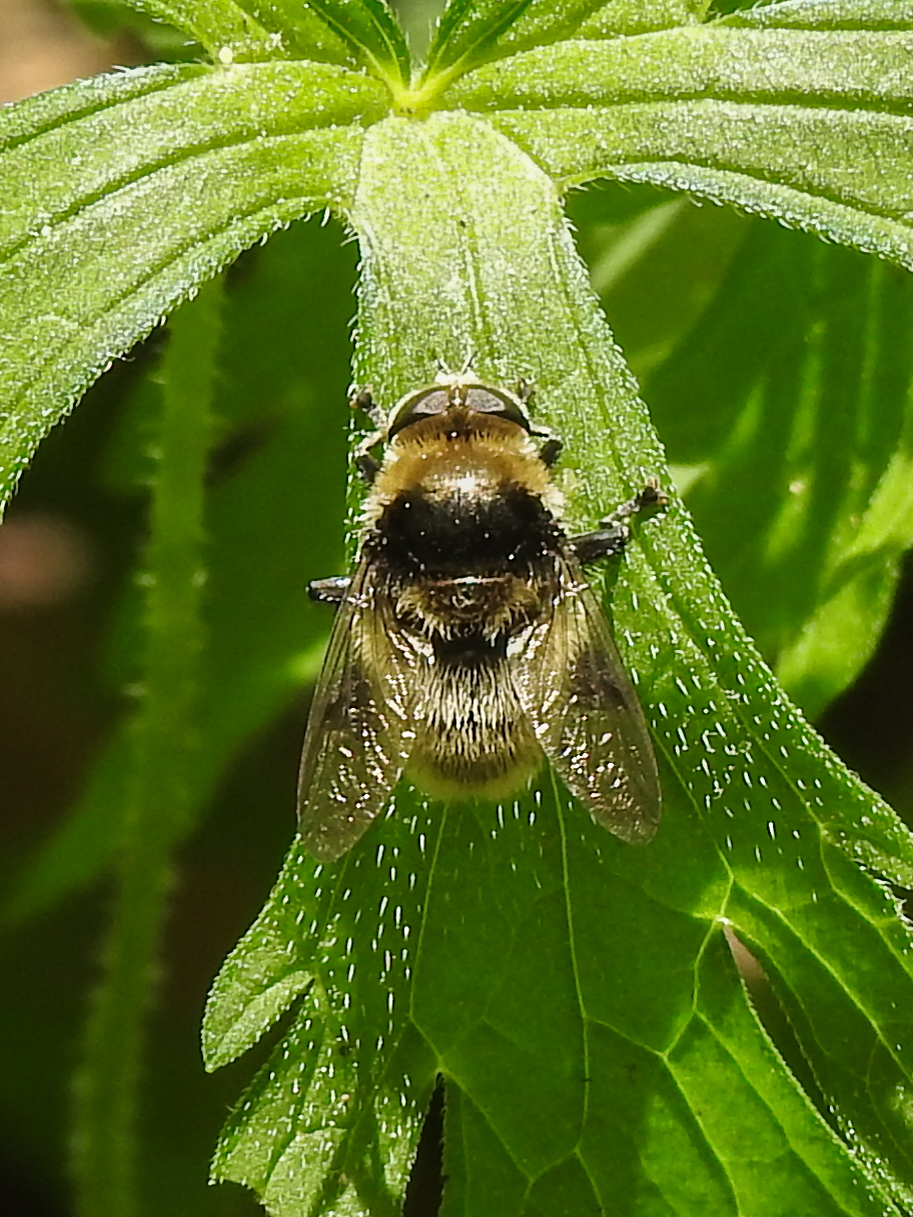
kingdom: Animalia
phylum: Arthropoda
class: Insecta
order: Diptera
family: Syrphidae
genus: Merodon
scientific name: Merodon equestris
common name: Greater bulb-fly
